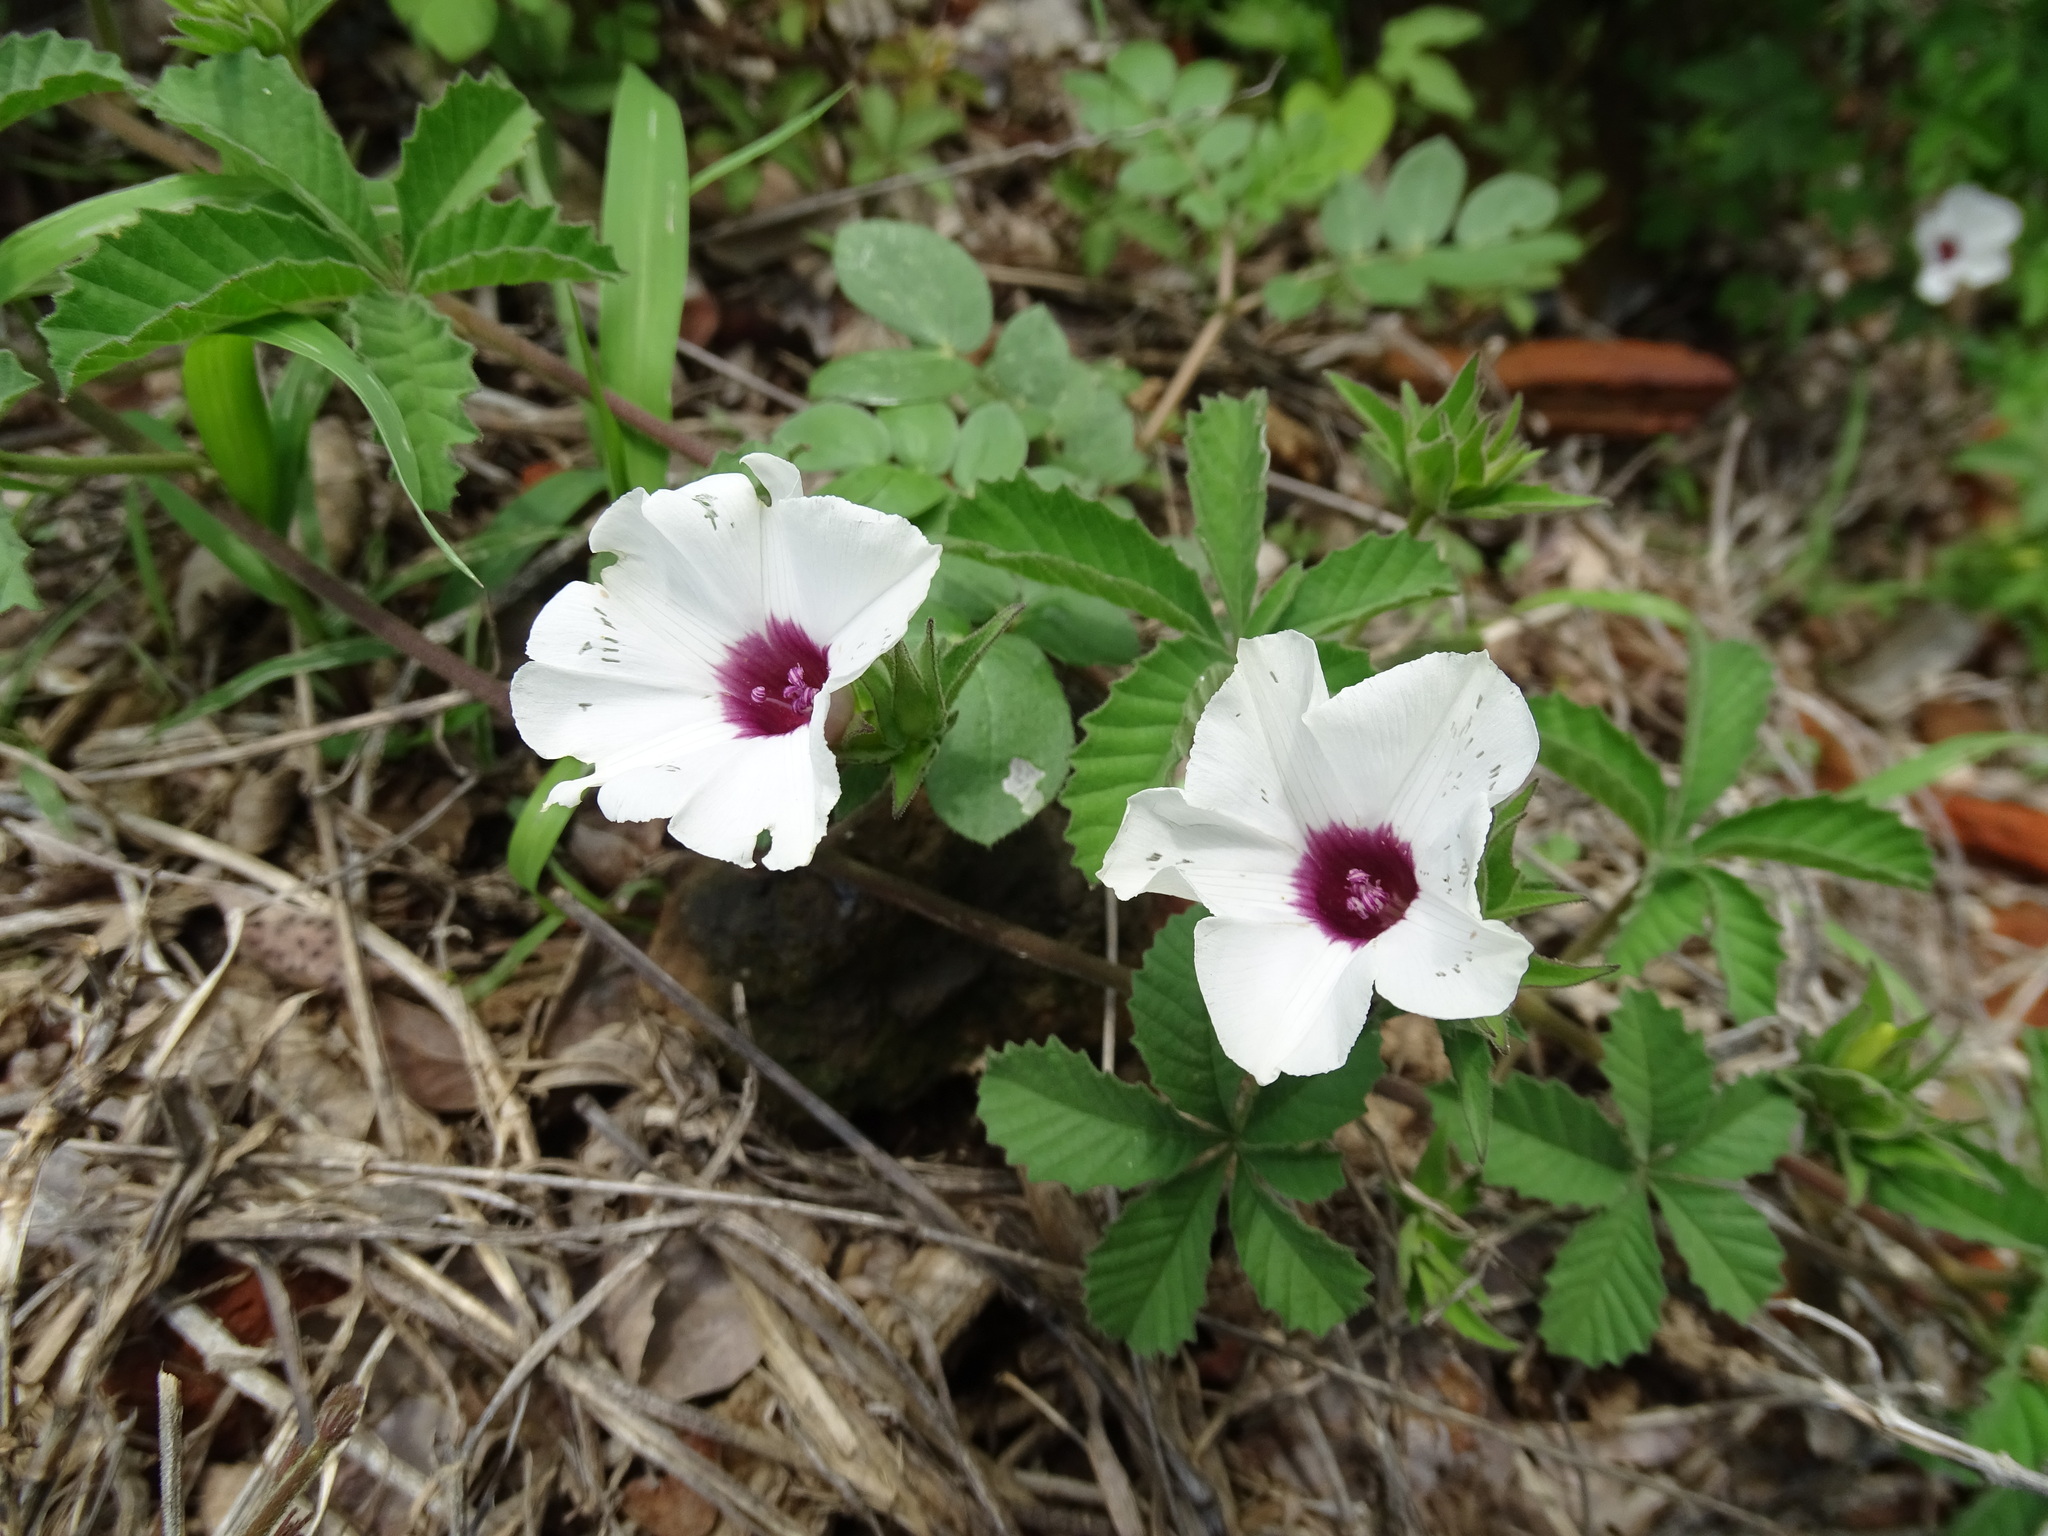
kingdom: Plantae
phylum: Tracheophyta
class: Magnoliopsida
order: Solanales
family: Convolvulaceae
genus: Distimake
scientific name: Distimake lobulibracteatus
